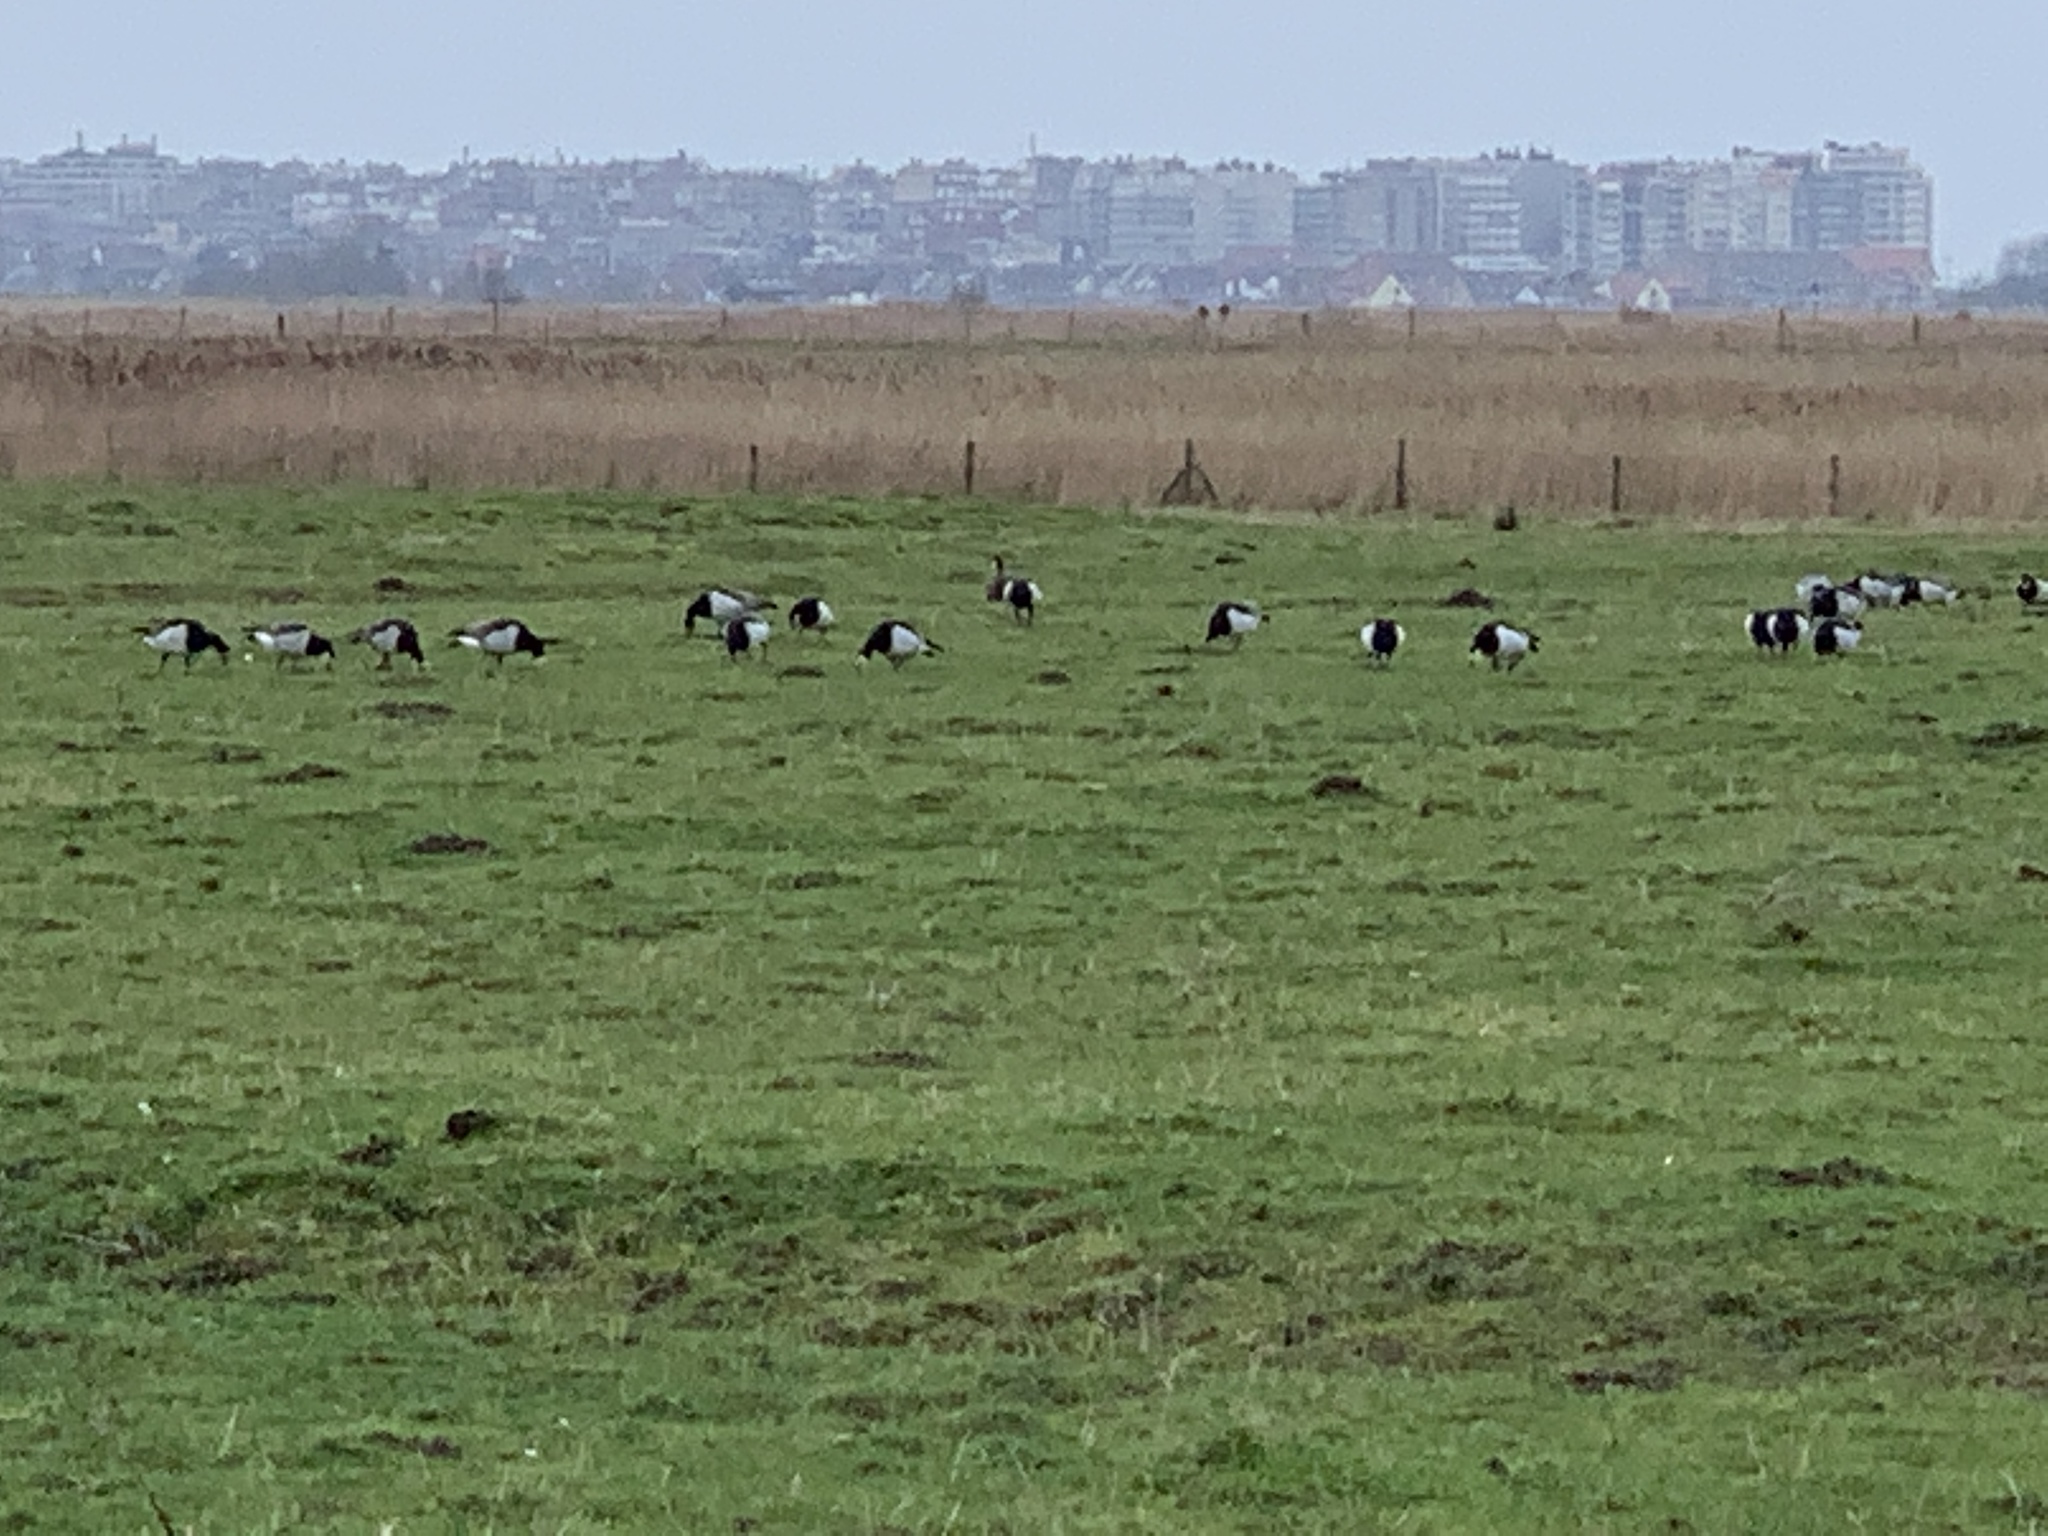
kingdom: Animalia
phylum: Chordata
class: Aves
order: Anseriformes
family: Anatidae
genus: Branta
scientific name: Branta leucopsis
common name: Barnacle goose
